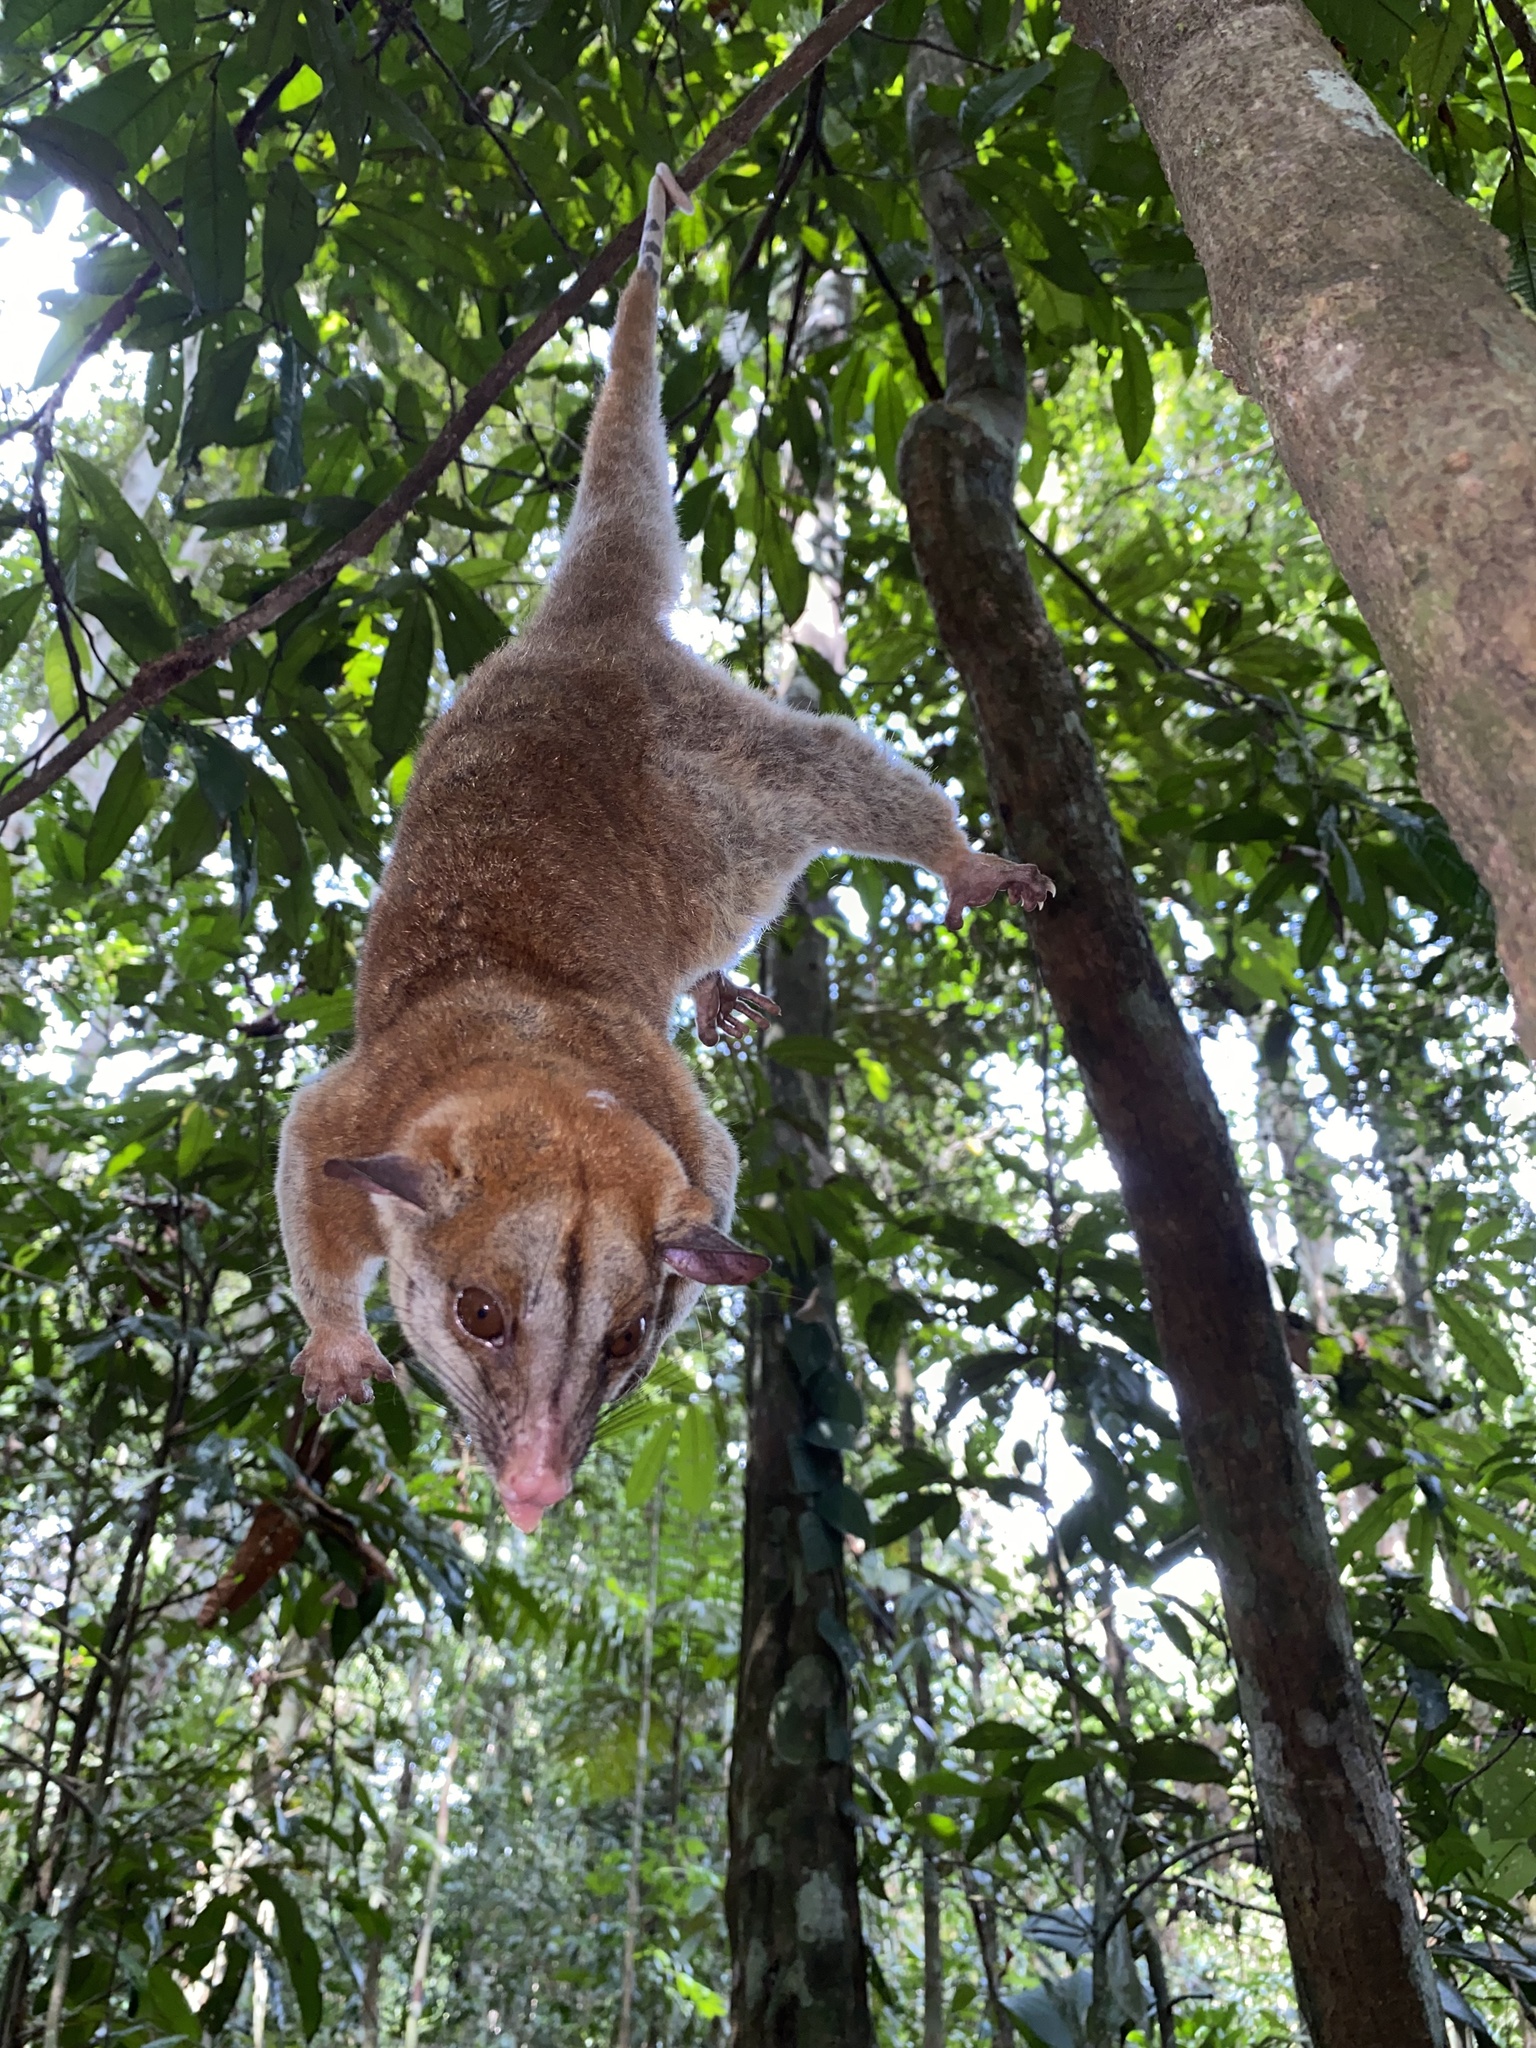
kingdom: Animalia
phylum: Chordata
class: Mammalia
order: Didelphimorphia
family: Didelphidae
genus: Caluromys
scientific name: Caluromys lanatus
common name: Brown-eared woolly opossum
